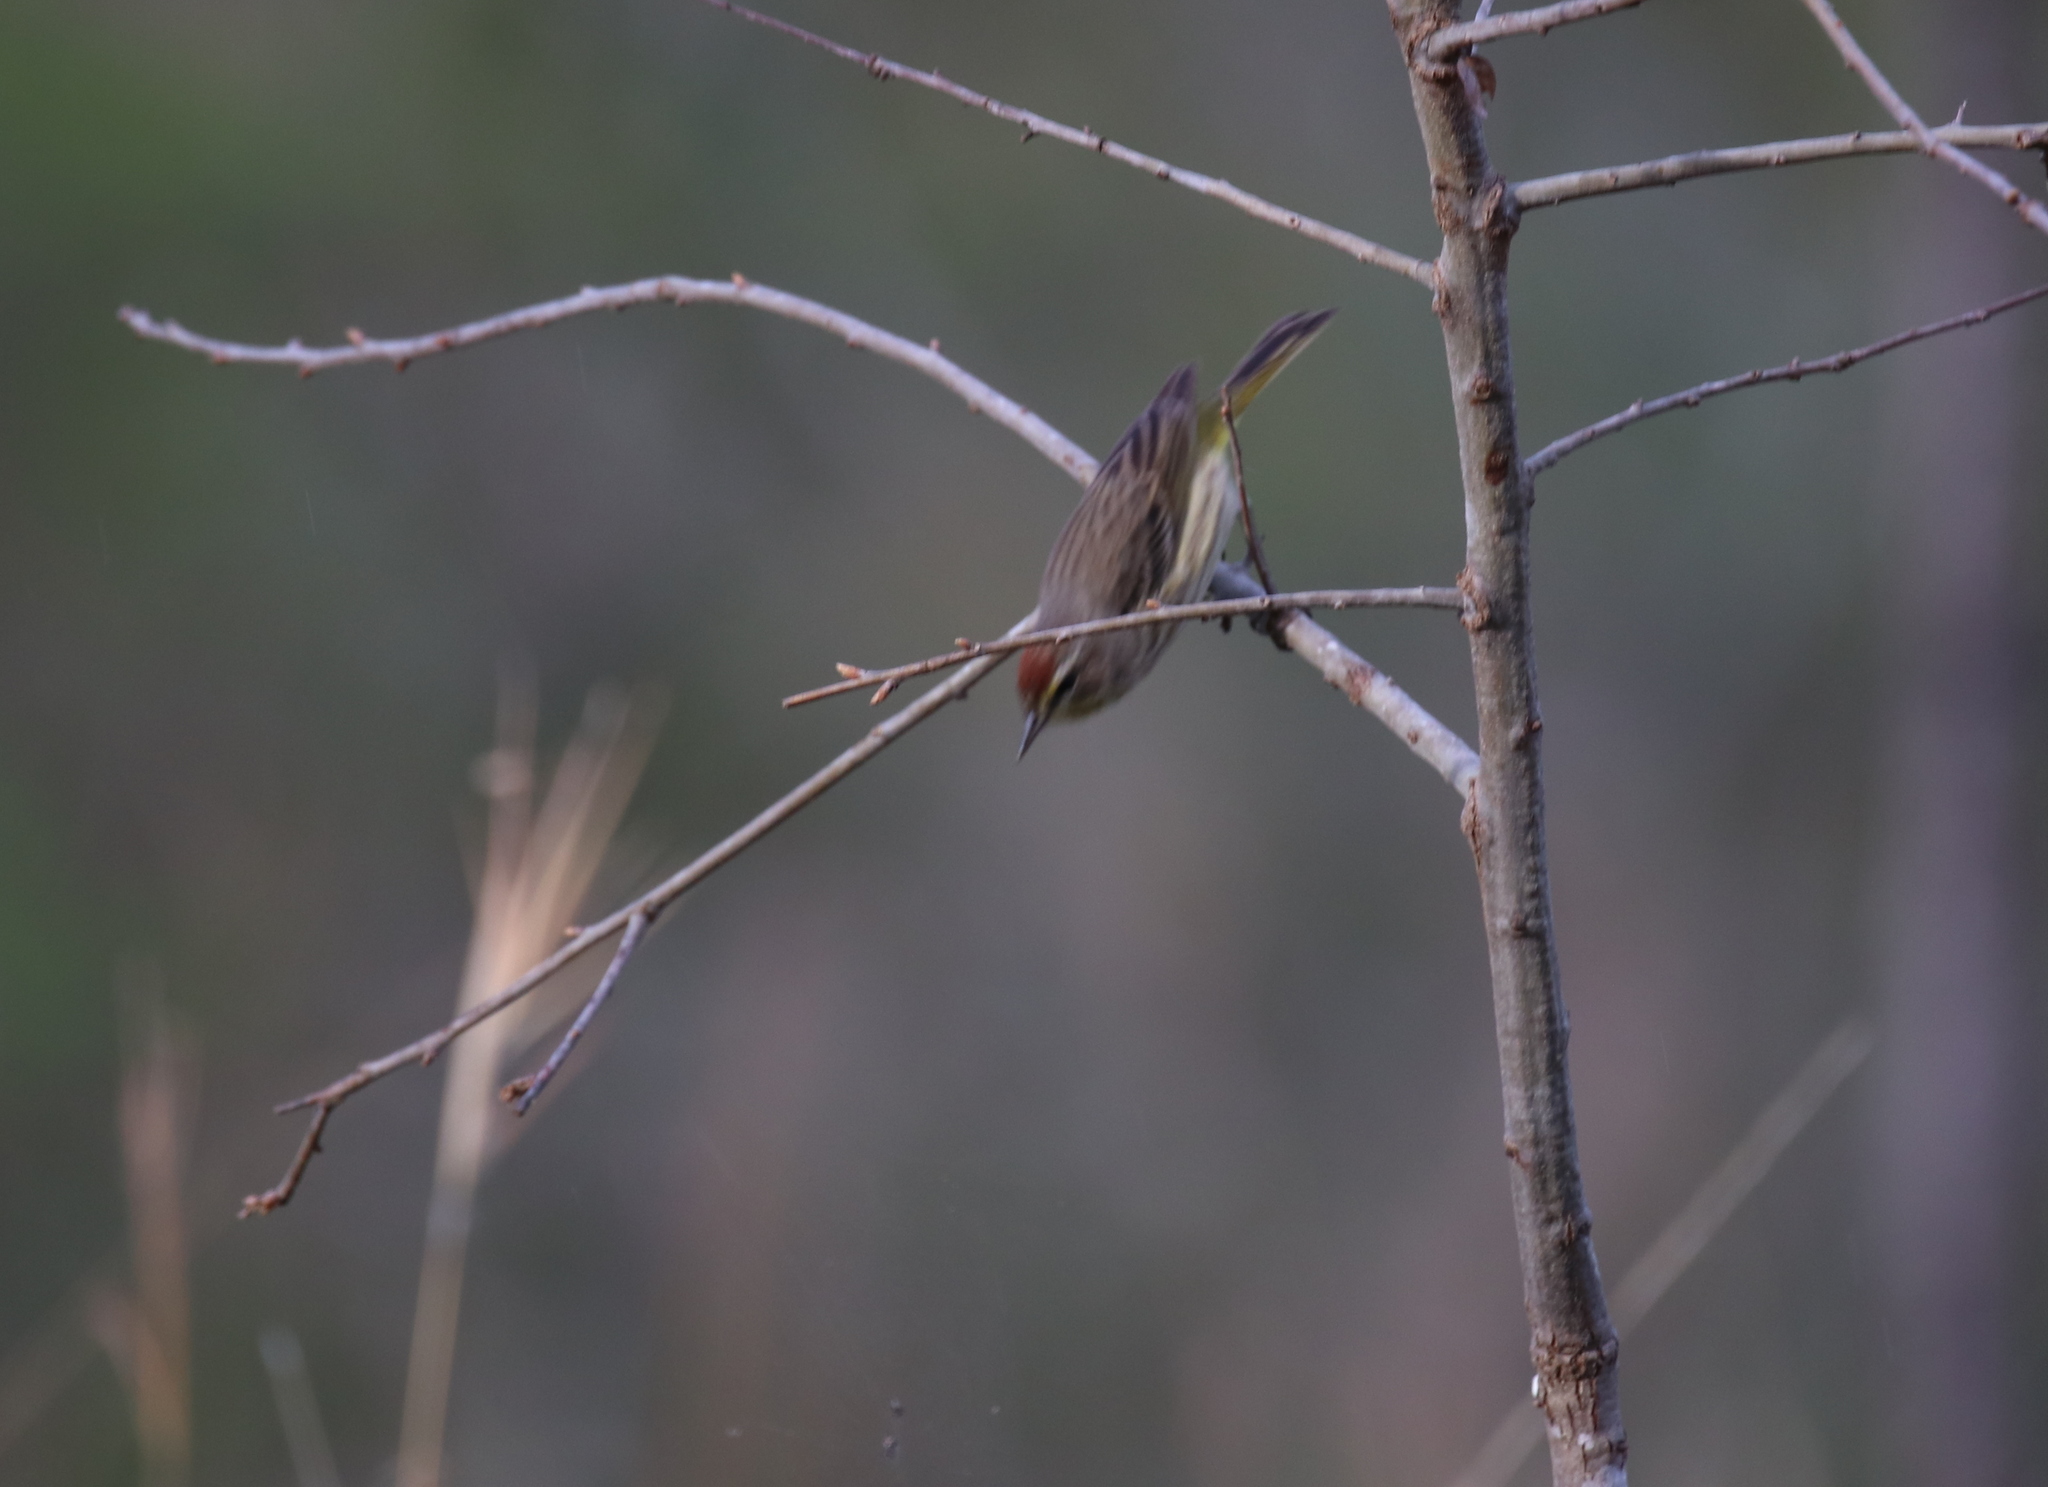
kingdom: Animalia
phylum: Chordata
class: Aves
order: Passeriformes
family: Parulidae
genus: Setophaga
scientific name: Setophaga palmarum
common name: Palm warbler
